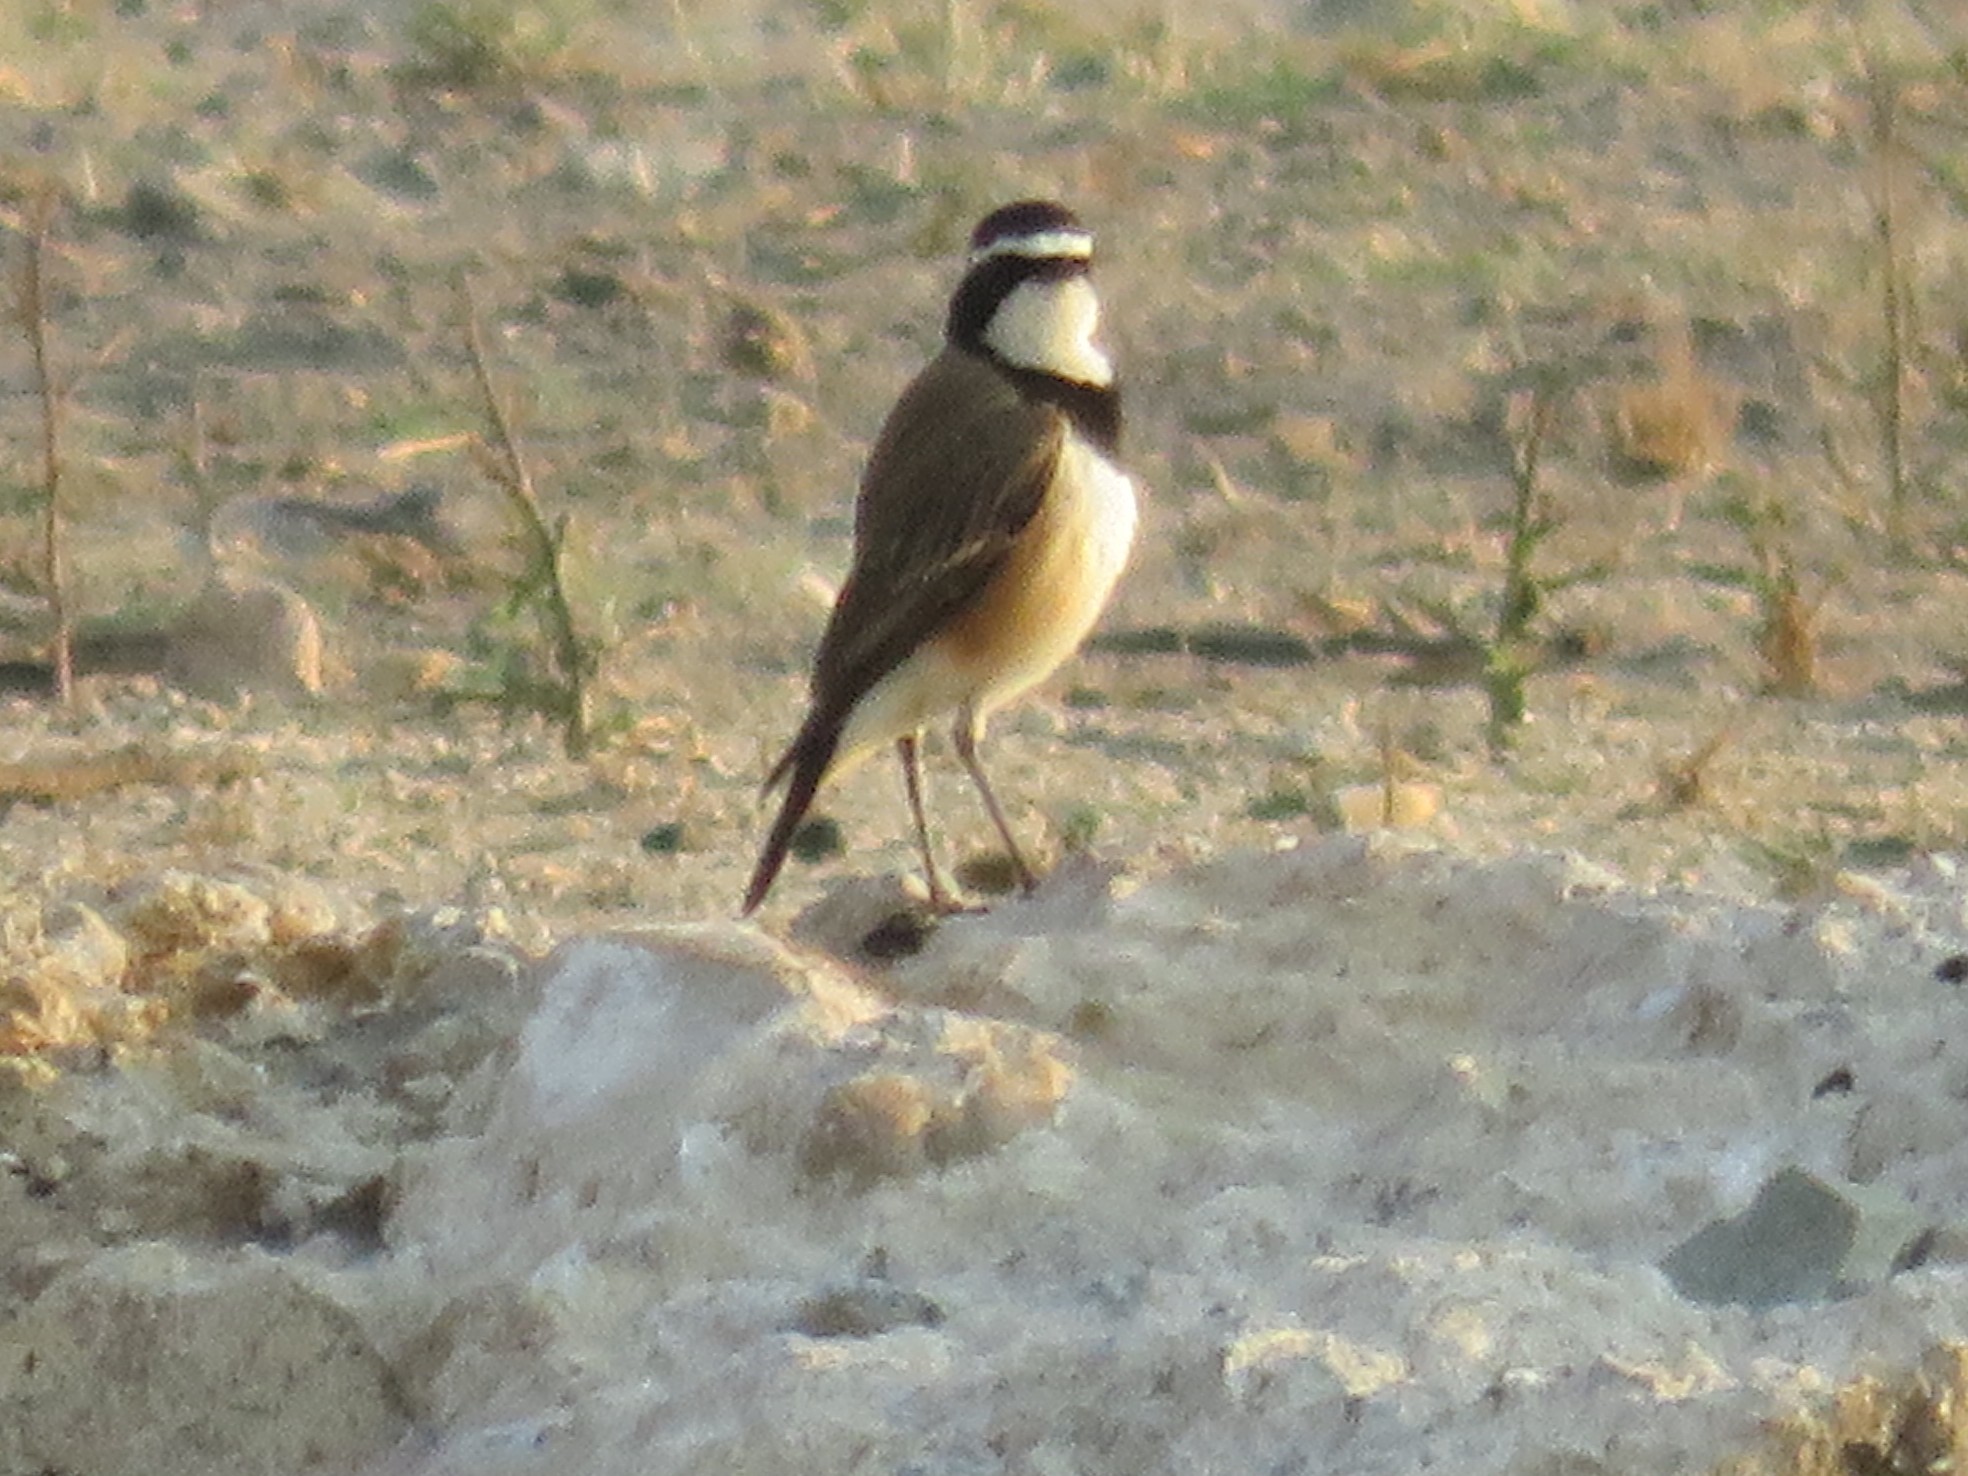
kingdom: Animalia
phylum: Chordata
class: Aves
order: Passeriformes
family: Muscicapidae
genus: Oenanthe
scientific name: Oenanthe pileata
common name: Capped wheatear
